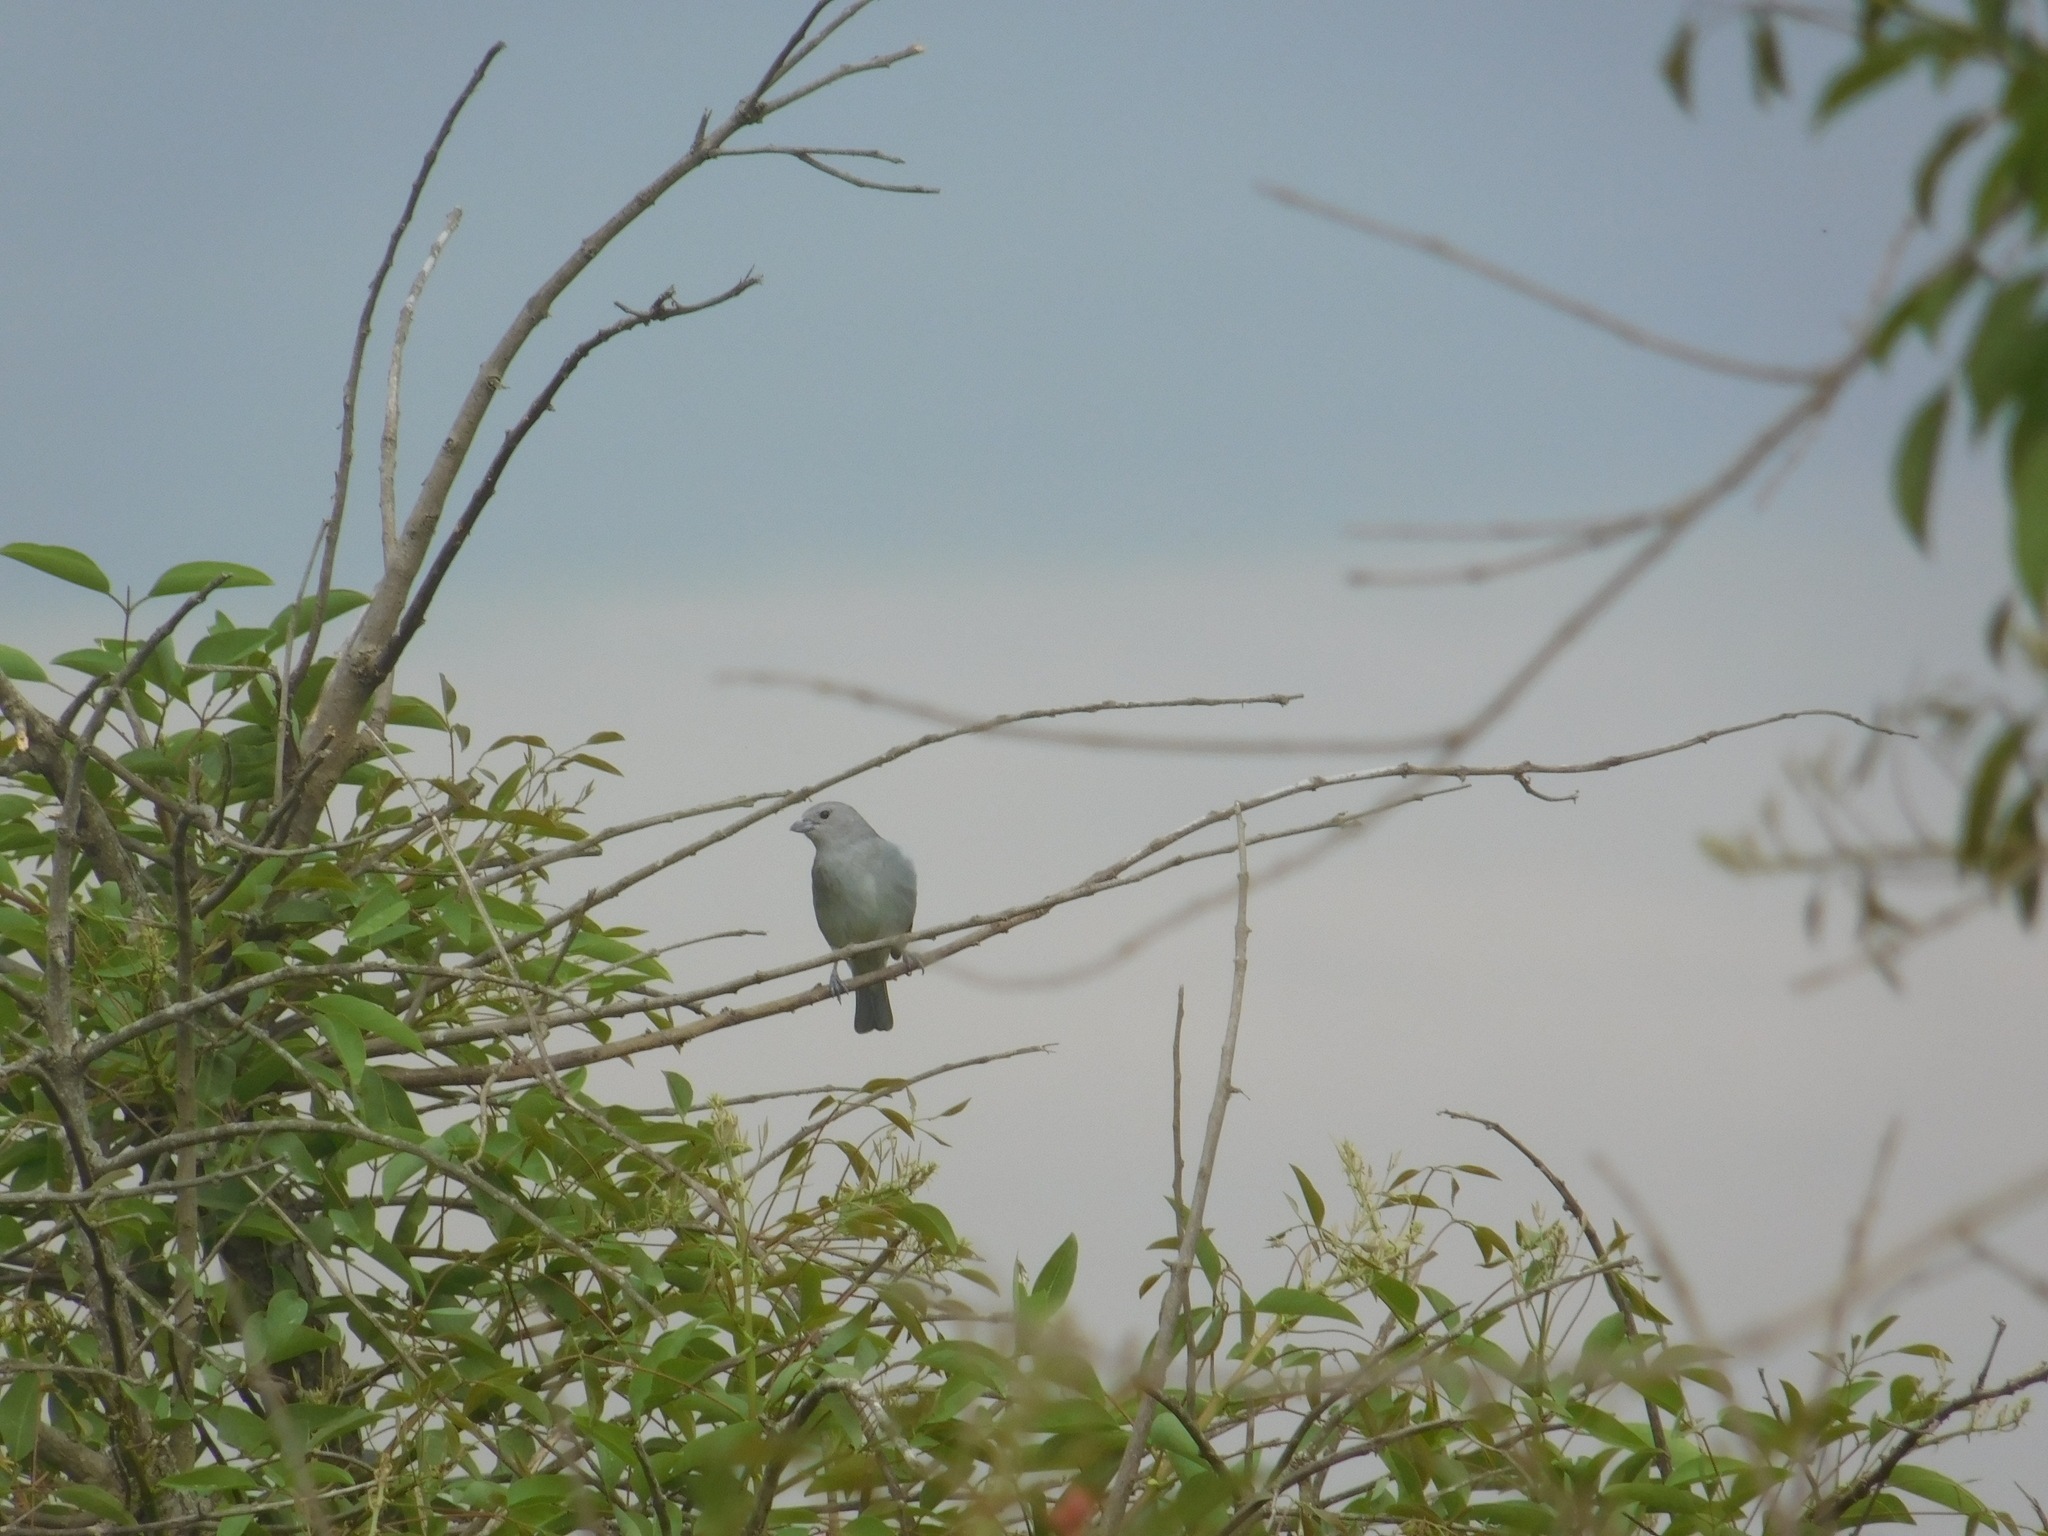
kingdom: Animalia
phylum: Chordata
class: Aves
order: Passeriformes
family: Thraupidae
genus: Thraupis
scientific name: Thraupis sayaca
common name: Sayaca tanager
